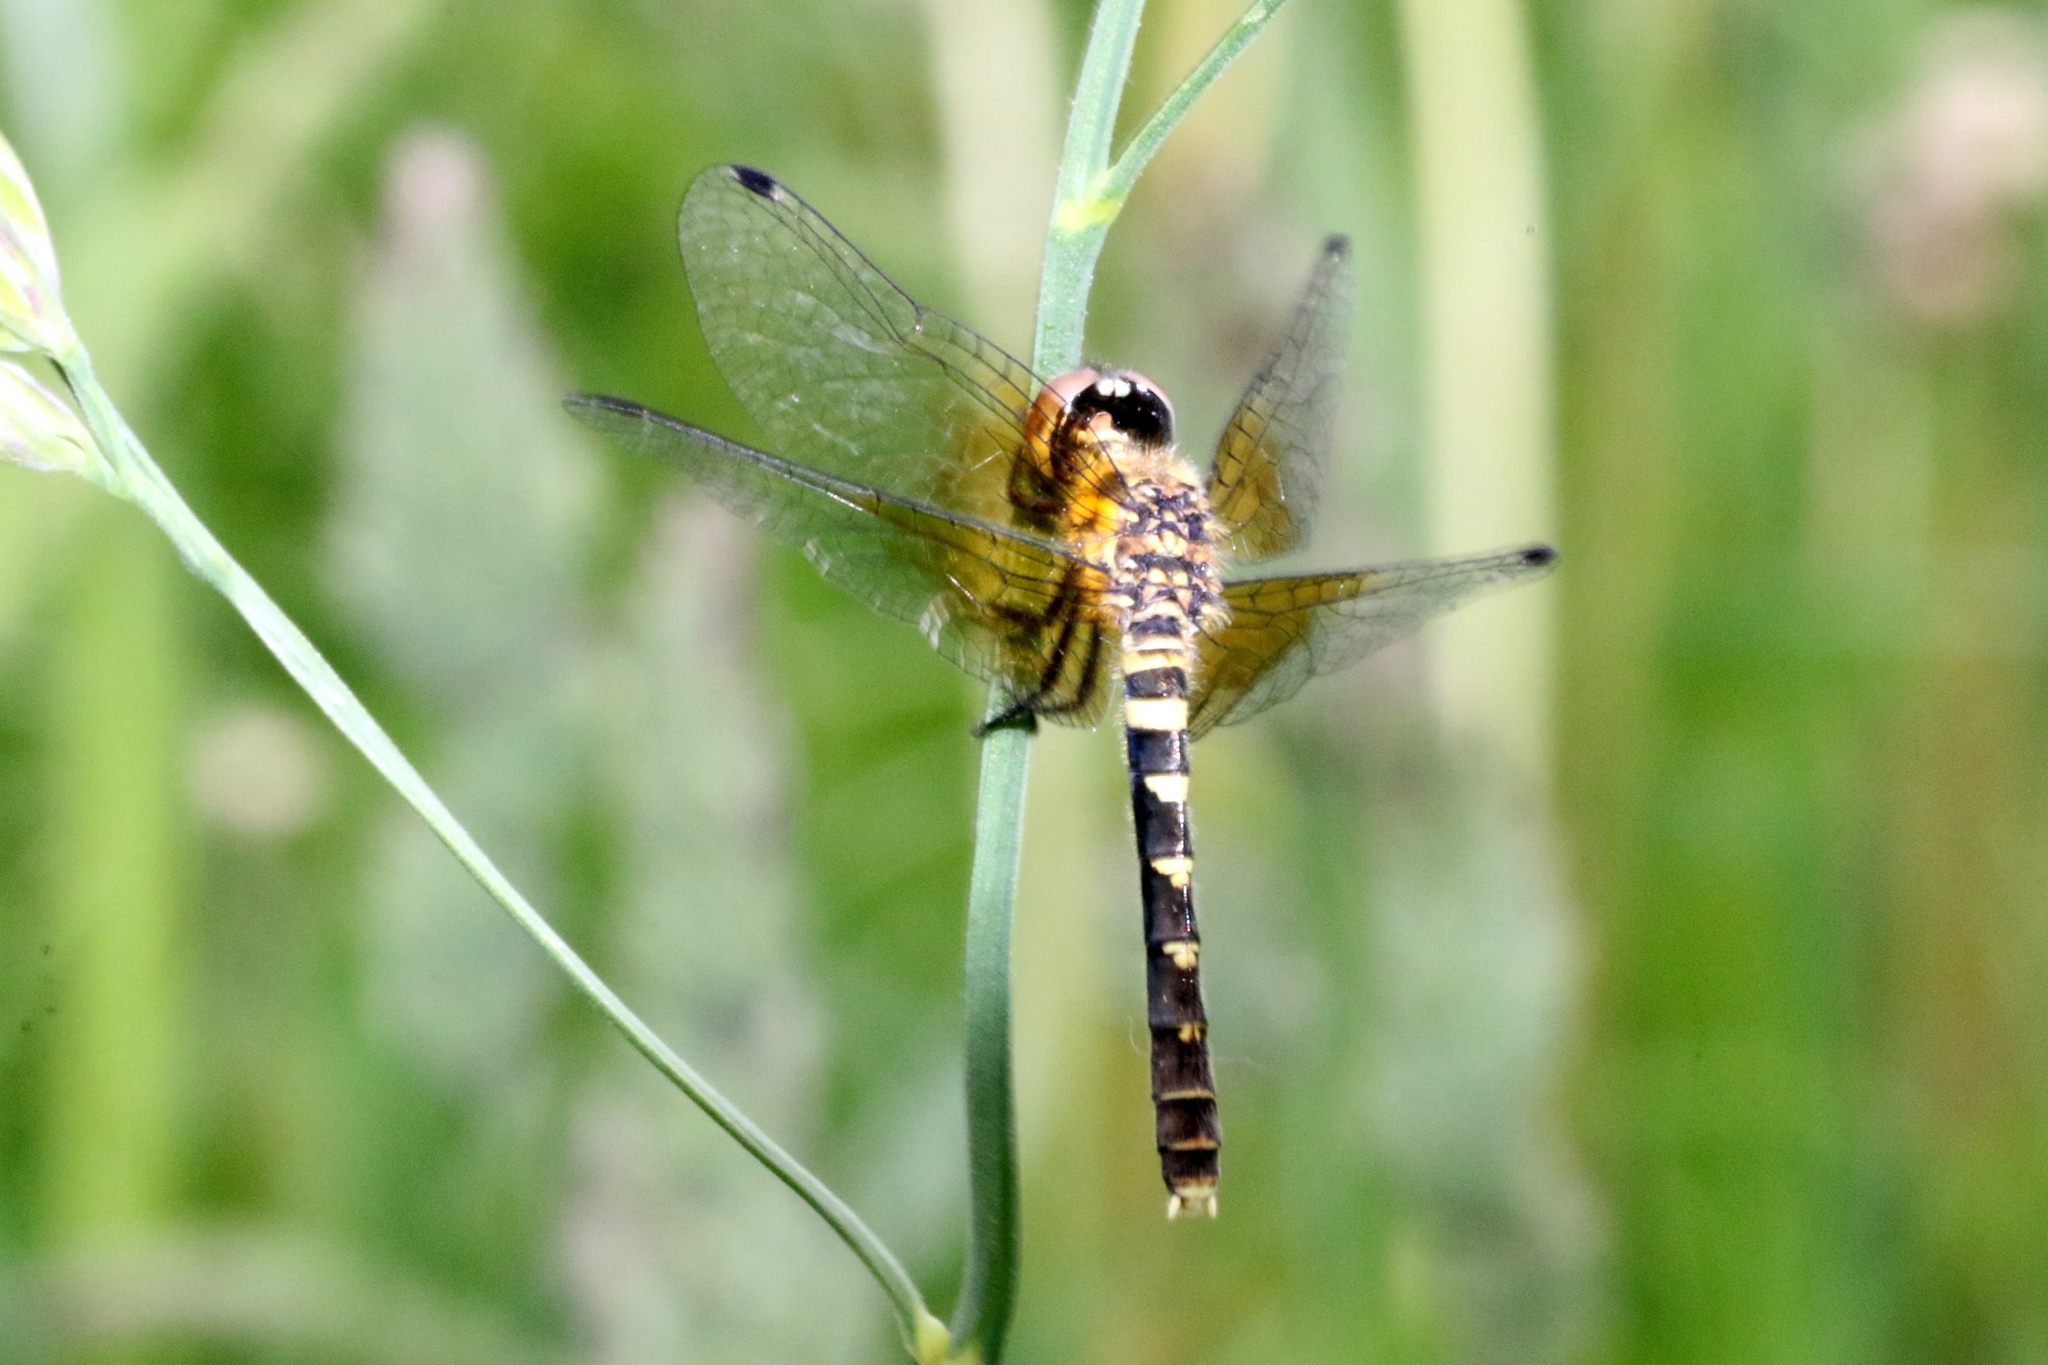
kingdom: Animalia
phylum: Arthropoda
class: Insecta
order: Odonata
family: Libellulidae
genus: Nannothemis
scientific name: Nannothemis bella
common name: Elfin skimmer
